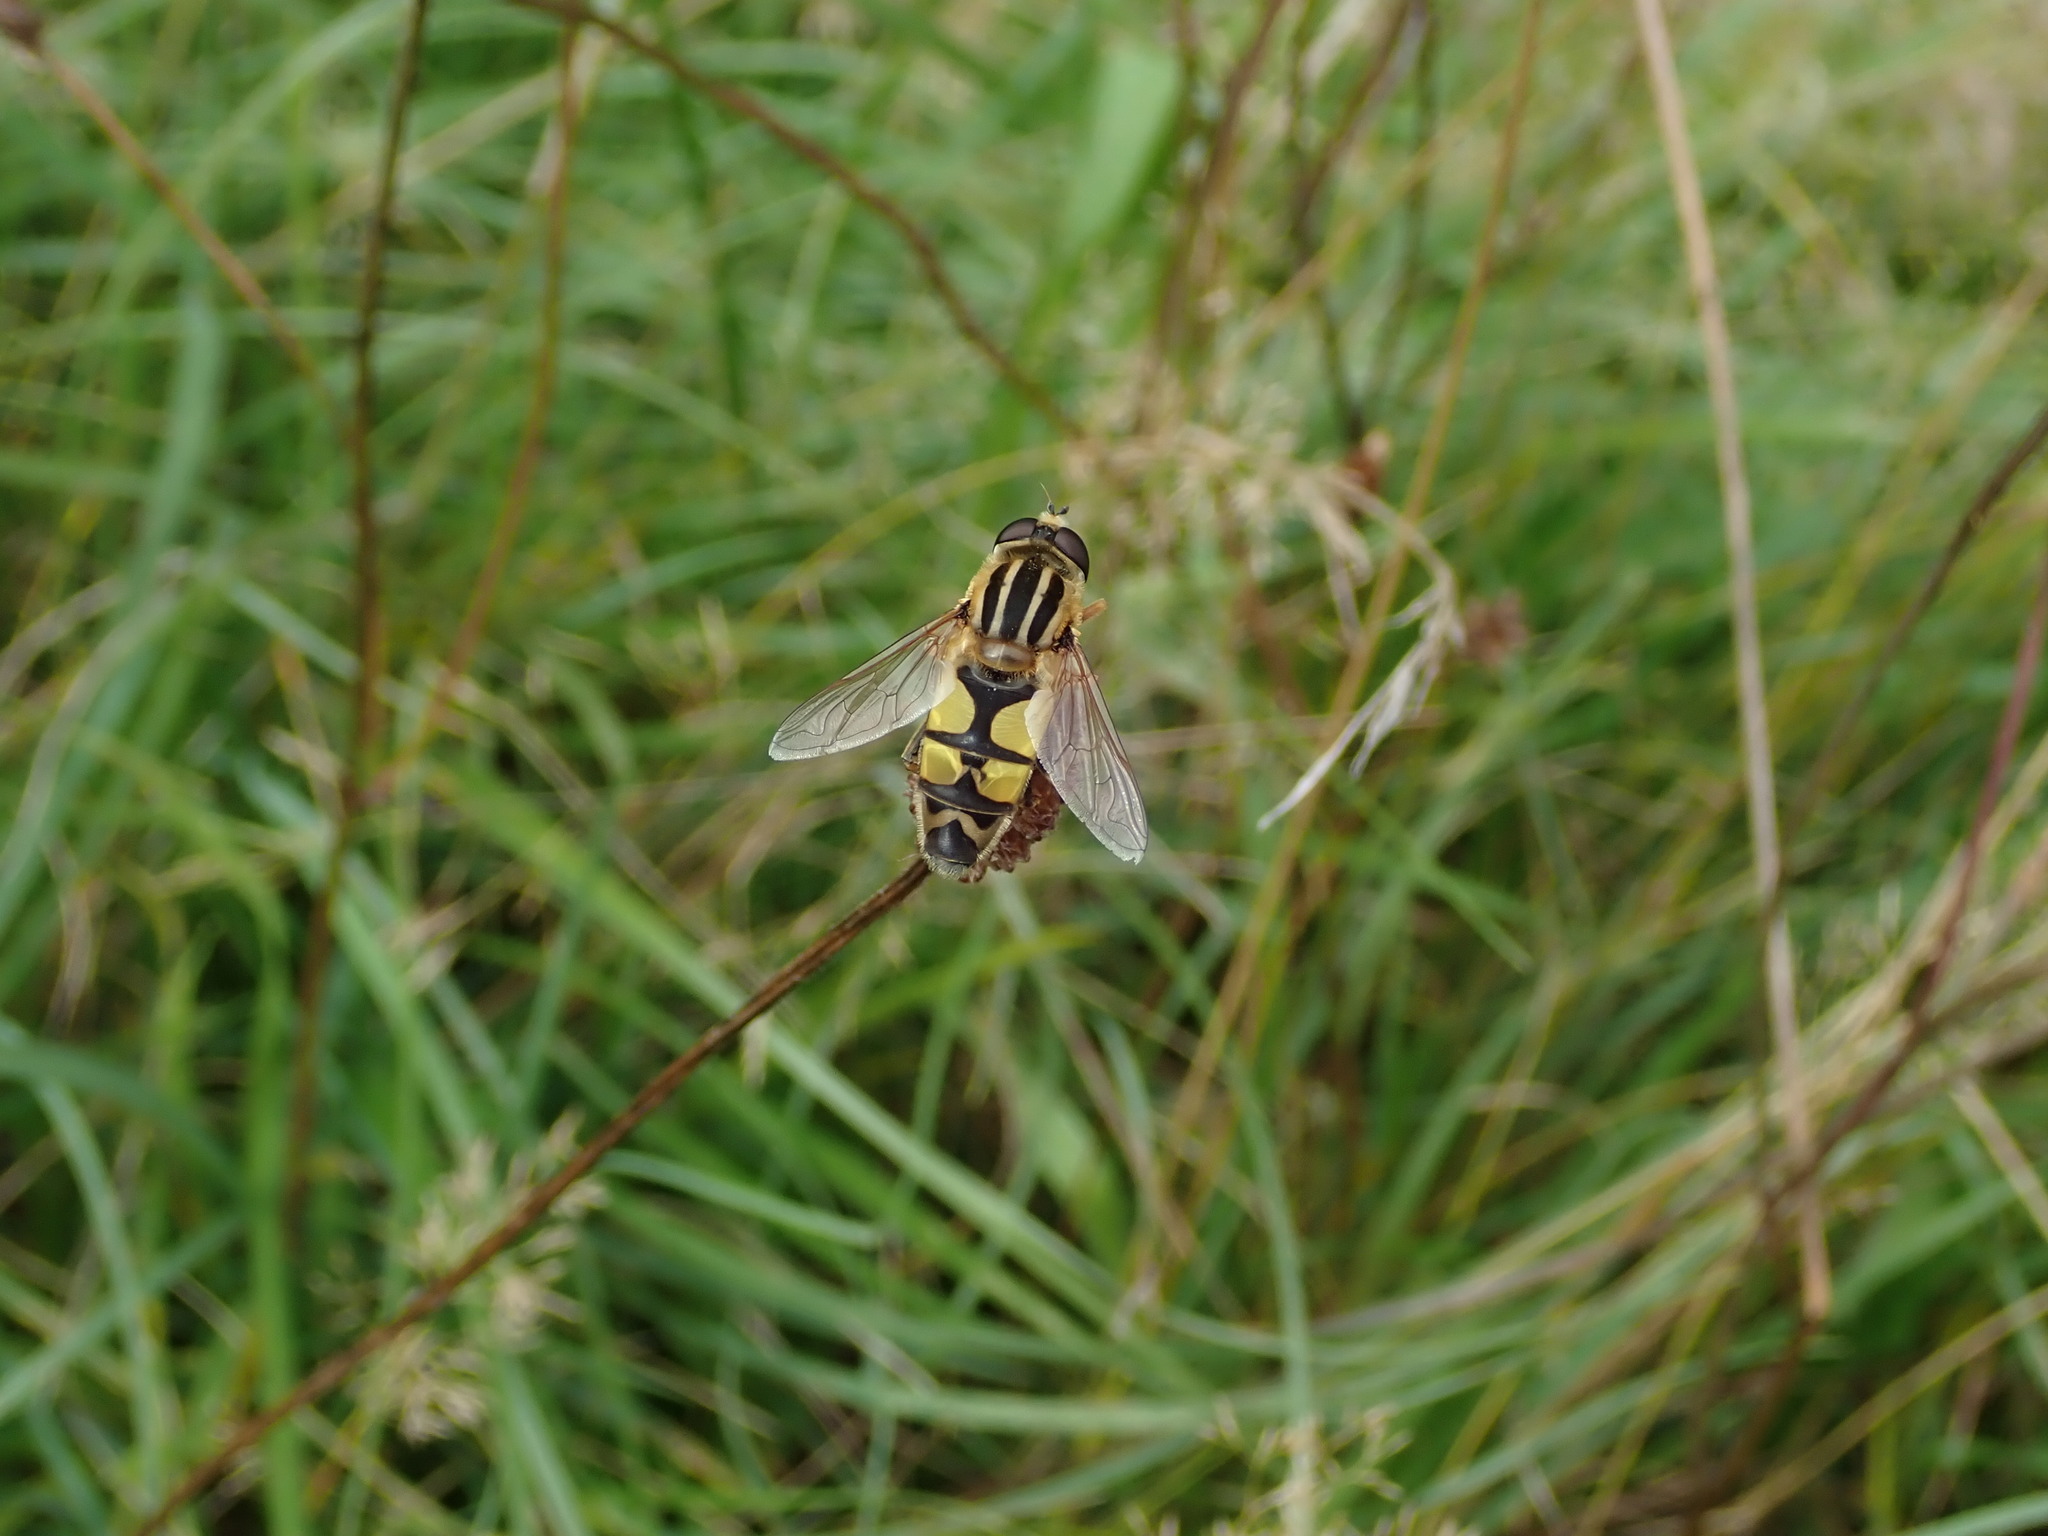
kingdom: Animalia
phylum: Arthropoda
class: Insecta
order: Diptera
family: Syrphidae
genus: Helophilus
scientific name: Helophilus trivittatus
